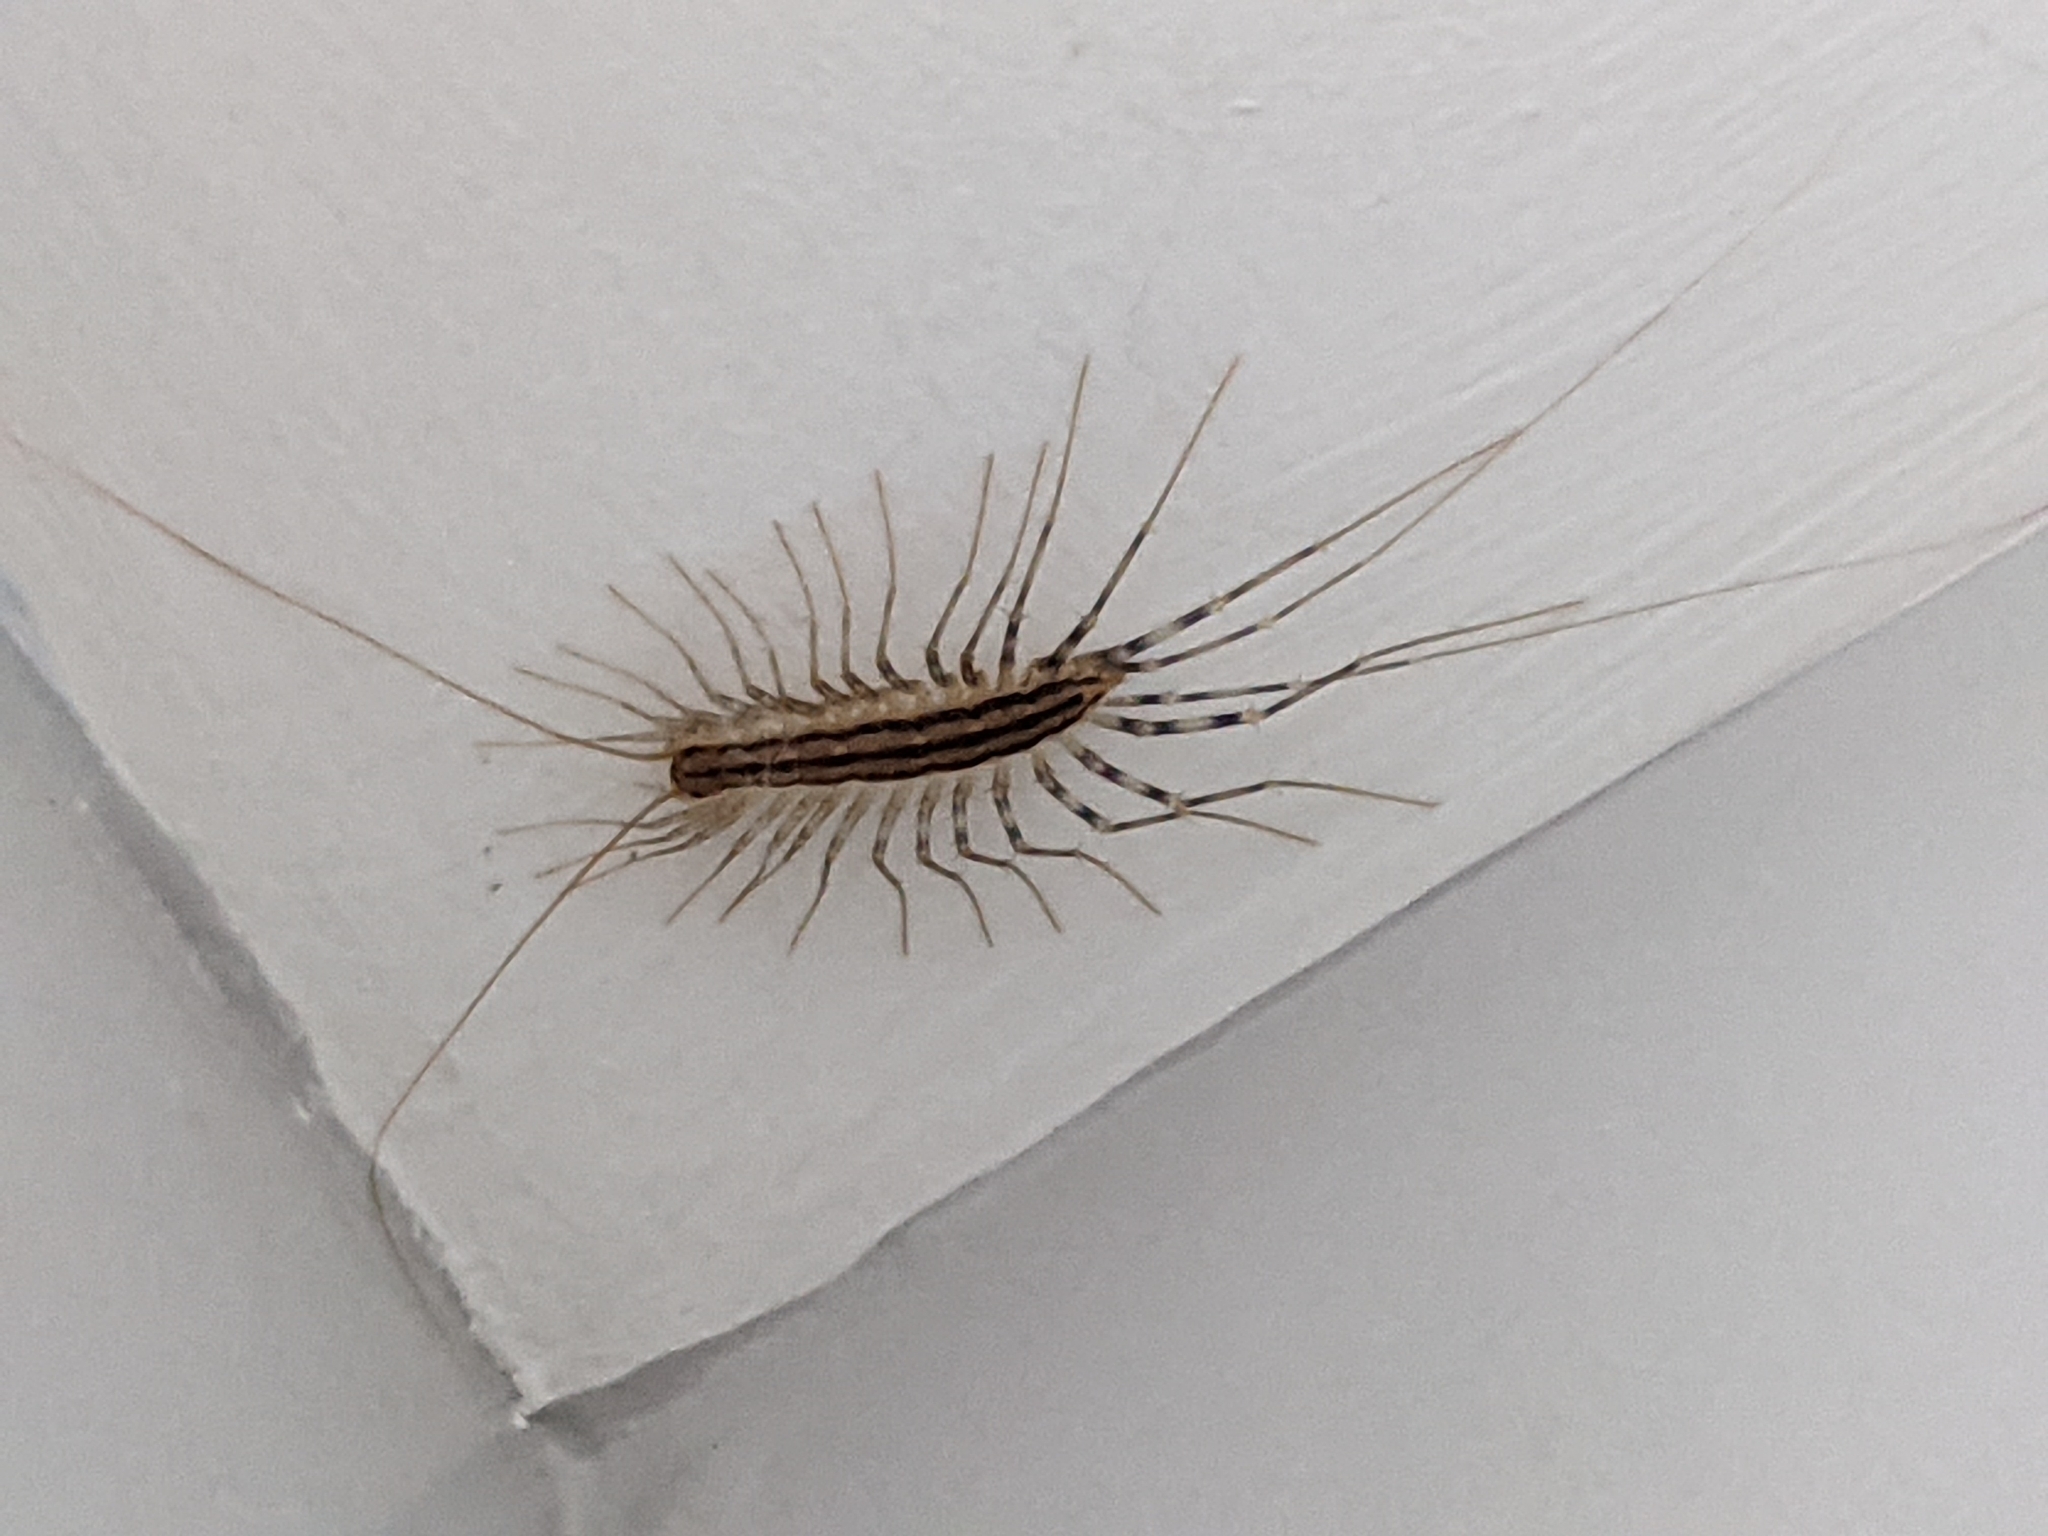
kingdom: Animalia
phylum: Arthropoda
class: Chilopoda
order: Scutigeromorpha
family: Scutigeridae
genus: Scutigera
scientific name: Scutigera coleoptrata
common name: House centipede
